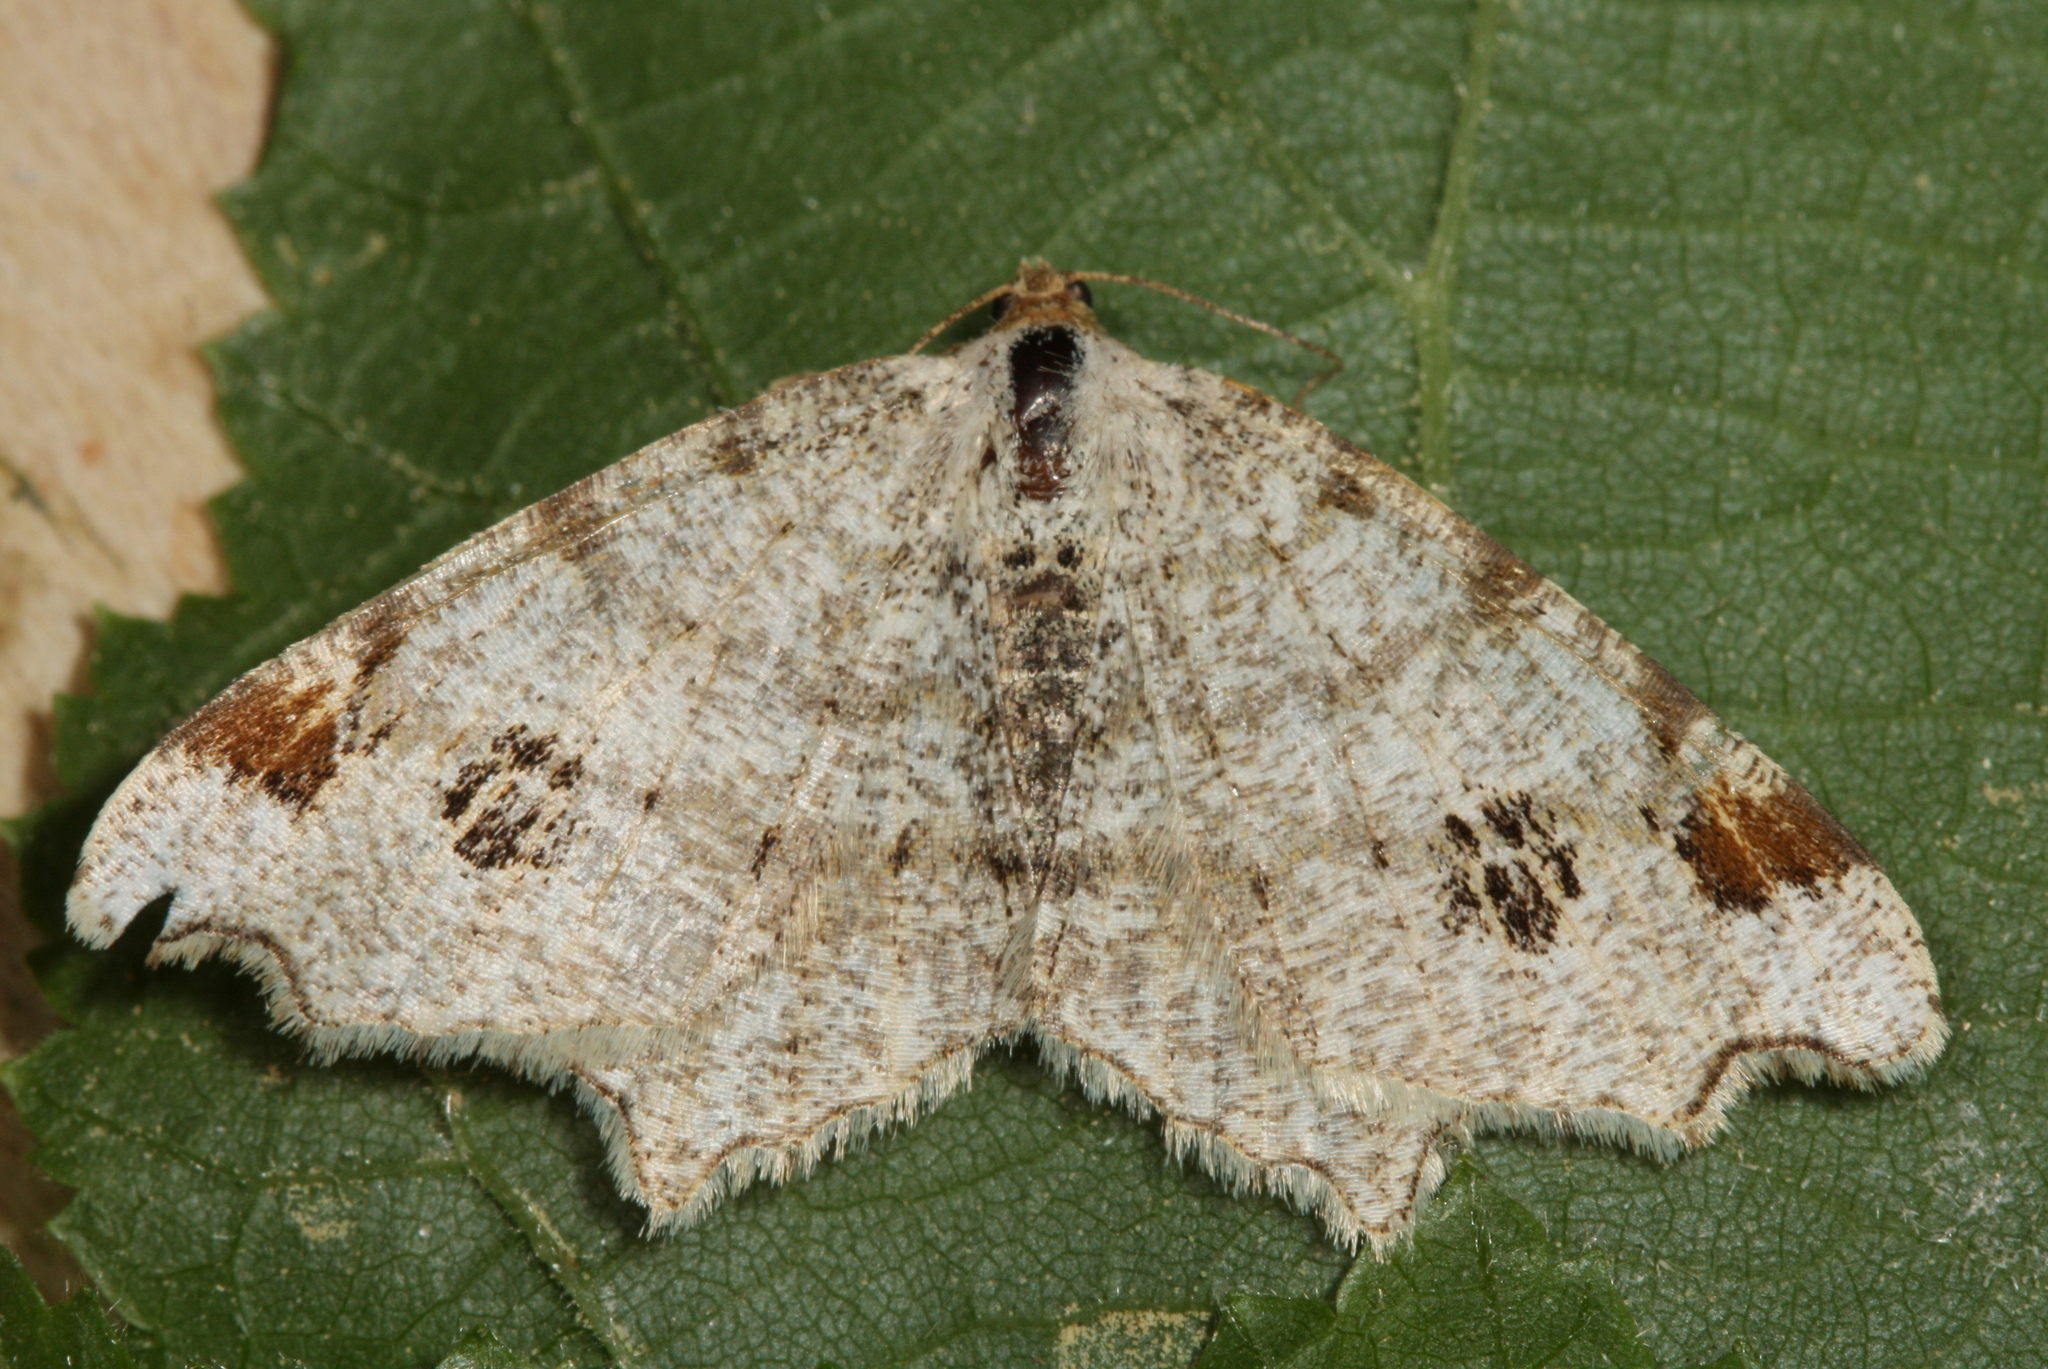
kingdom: Animalia
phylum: Arthropoda
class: Insecta
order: Lepidoptera
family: Geometridae
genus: Macaria
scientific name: Macaria notata
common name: Peacock moth
